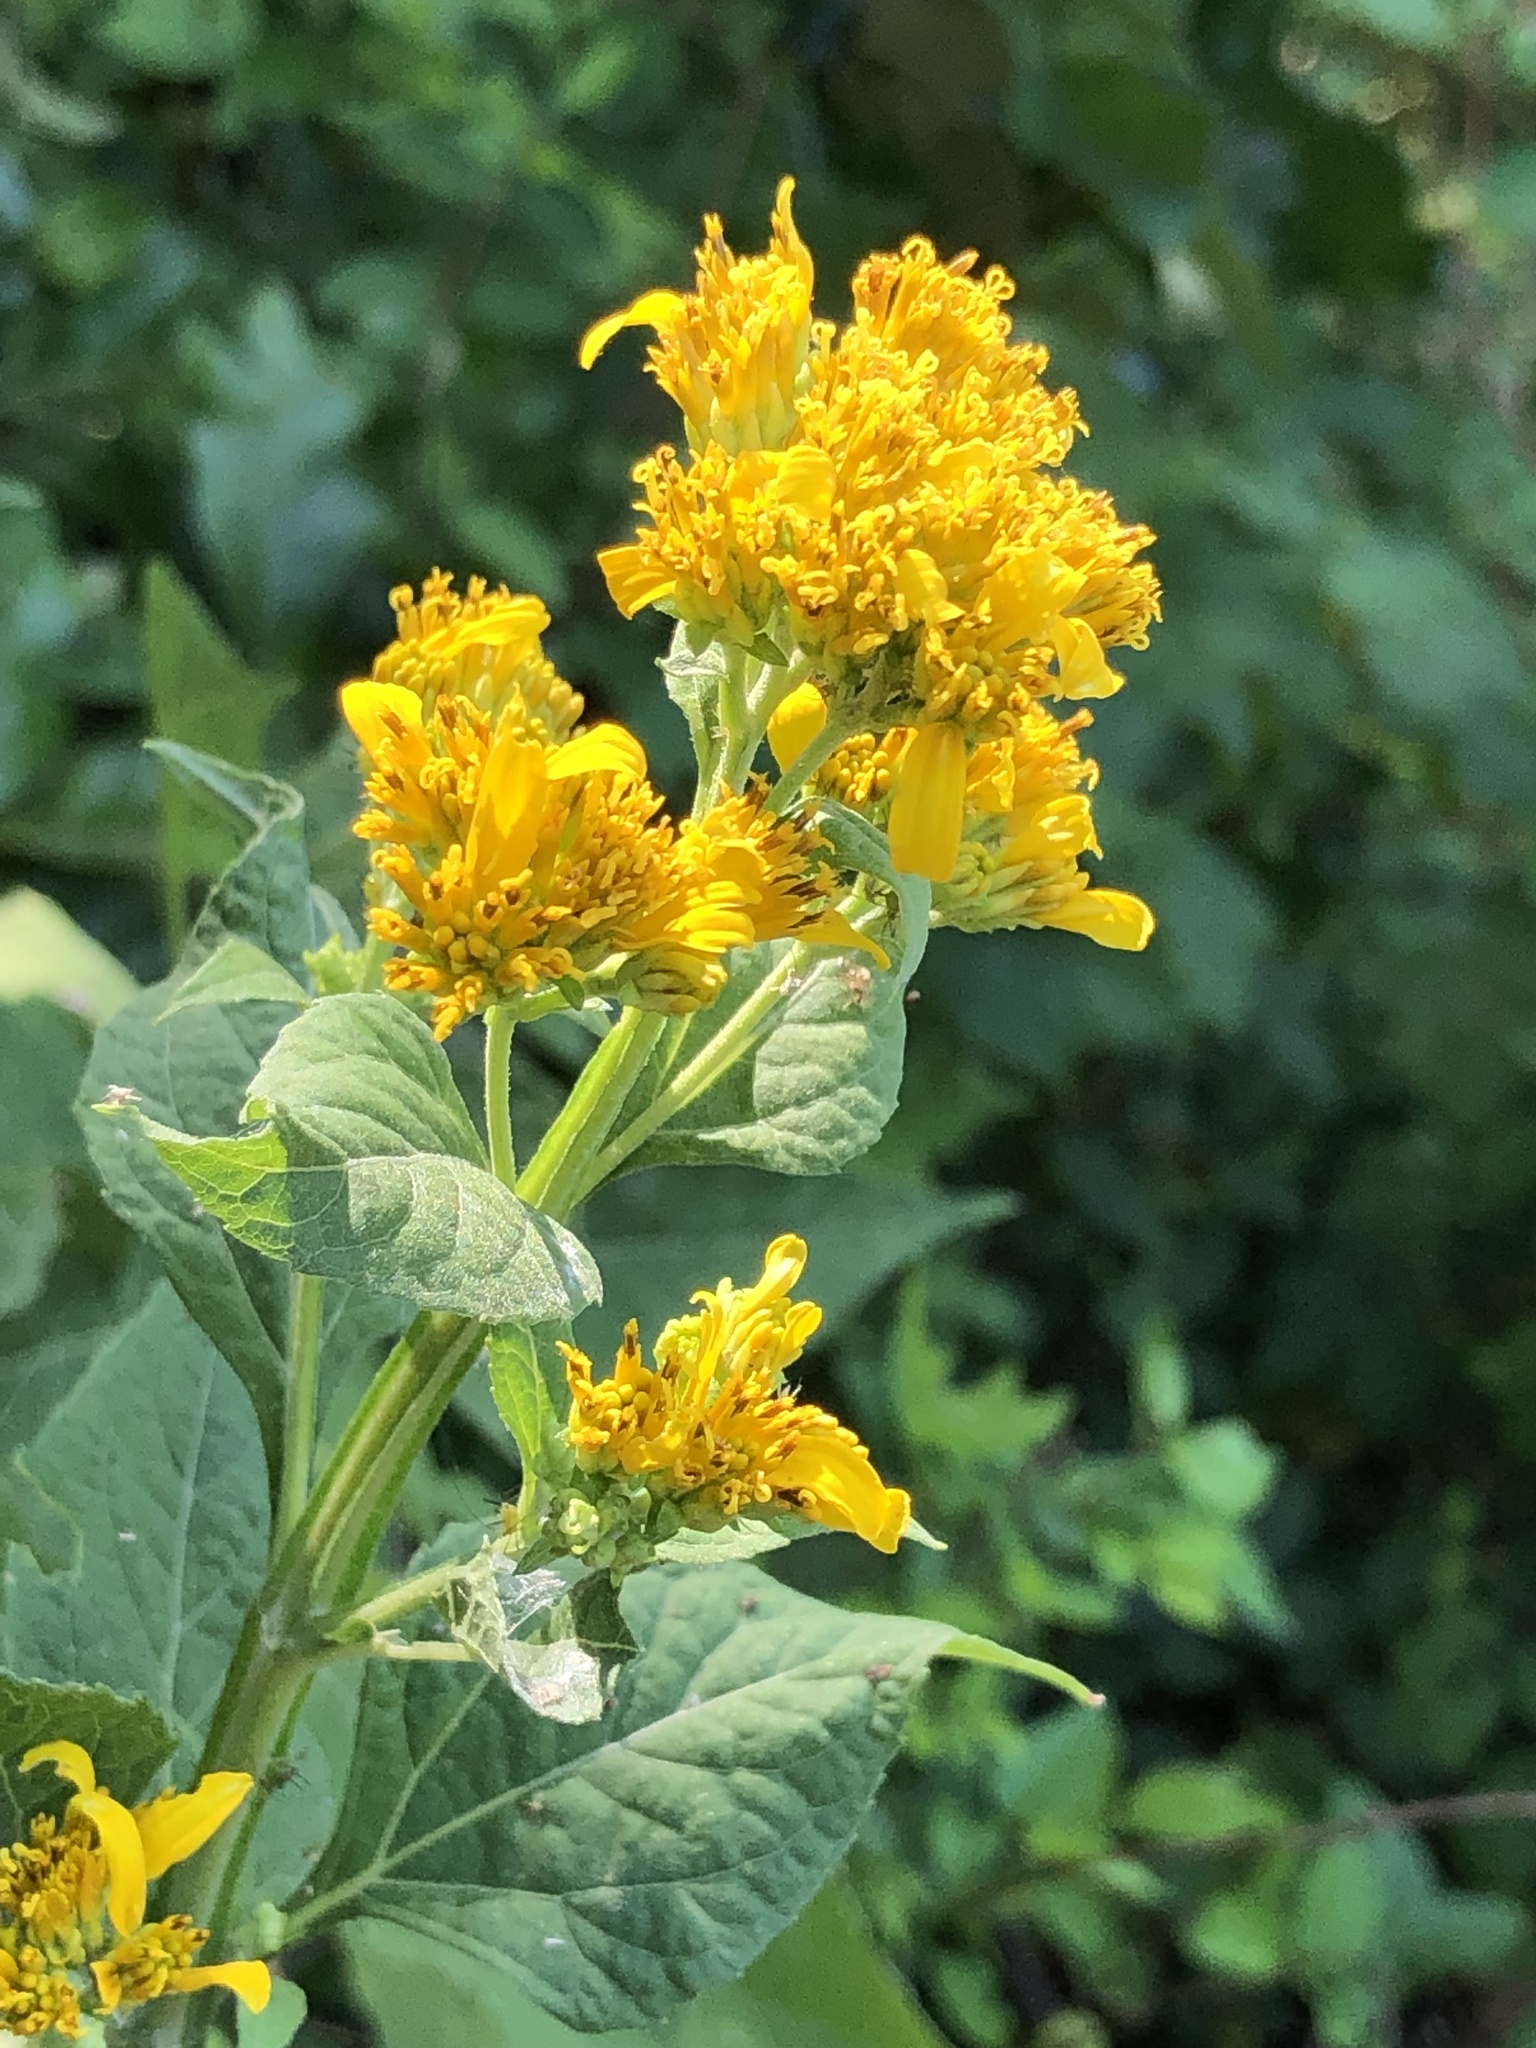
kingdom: Plantae
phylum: Tracheophyta
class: Magnoliopsida
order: Asterales
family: Asteraceae
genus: Verbesina
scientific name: Verbesina occidentalis
